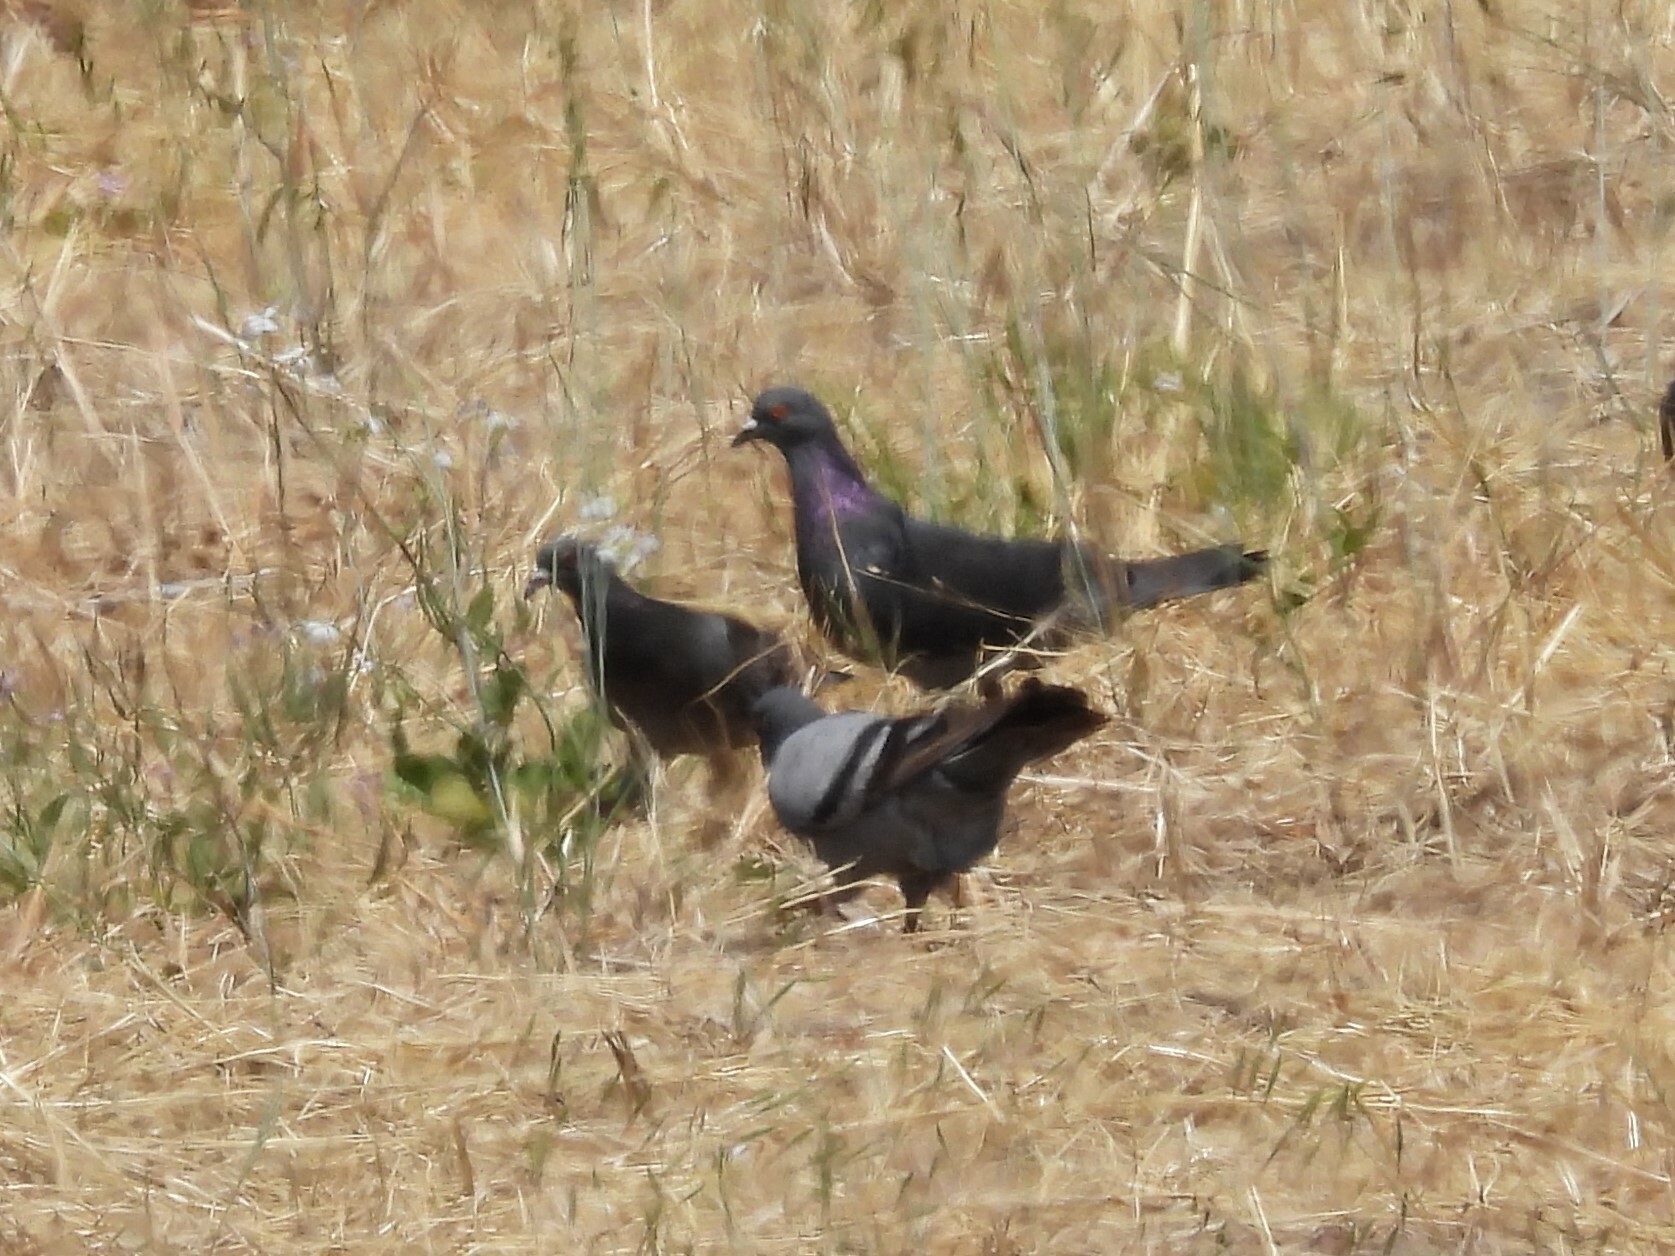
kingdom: Animalia
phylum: Chordata
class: Aves
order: Columbiformes
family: Columbidae
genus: Columba
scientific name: Columba livia
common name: Rock pigeon
